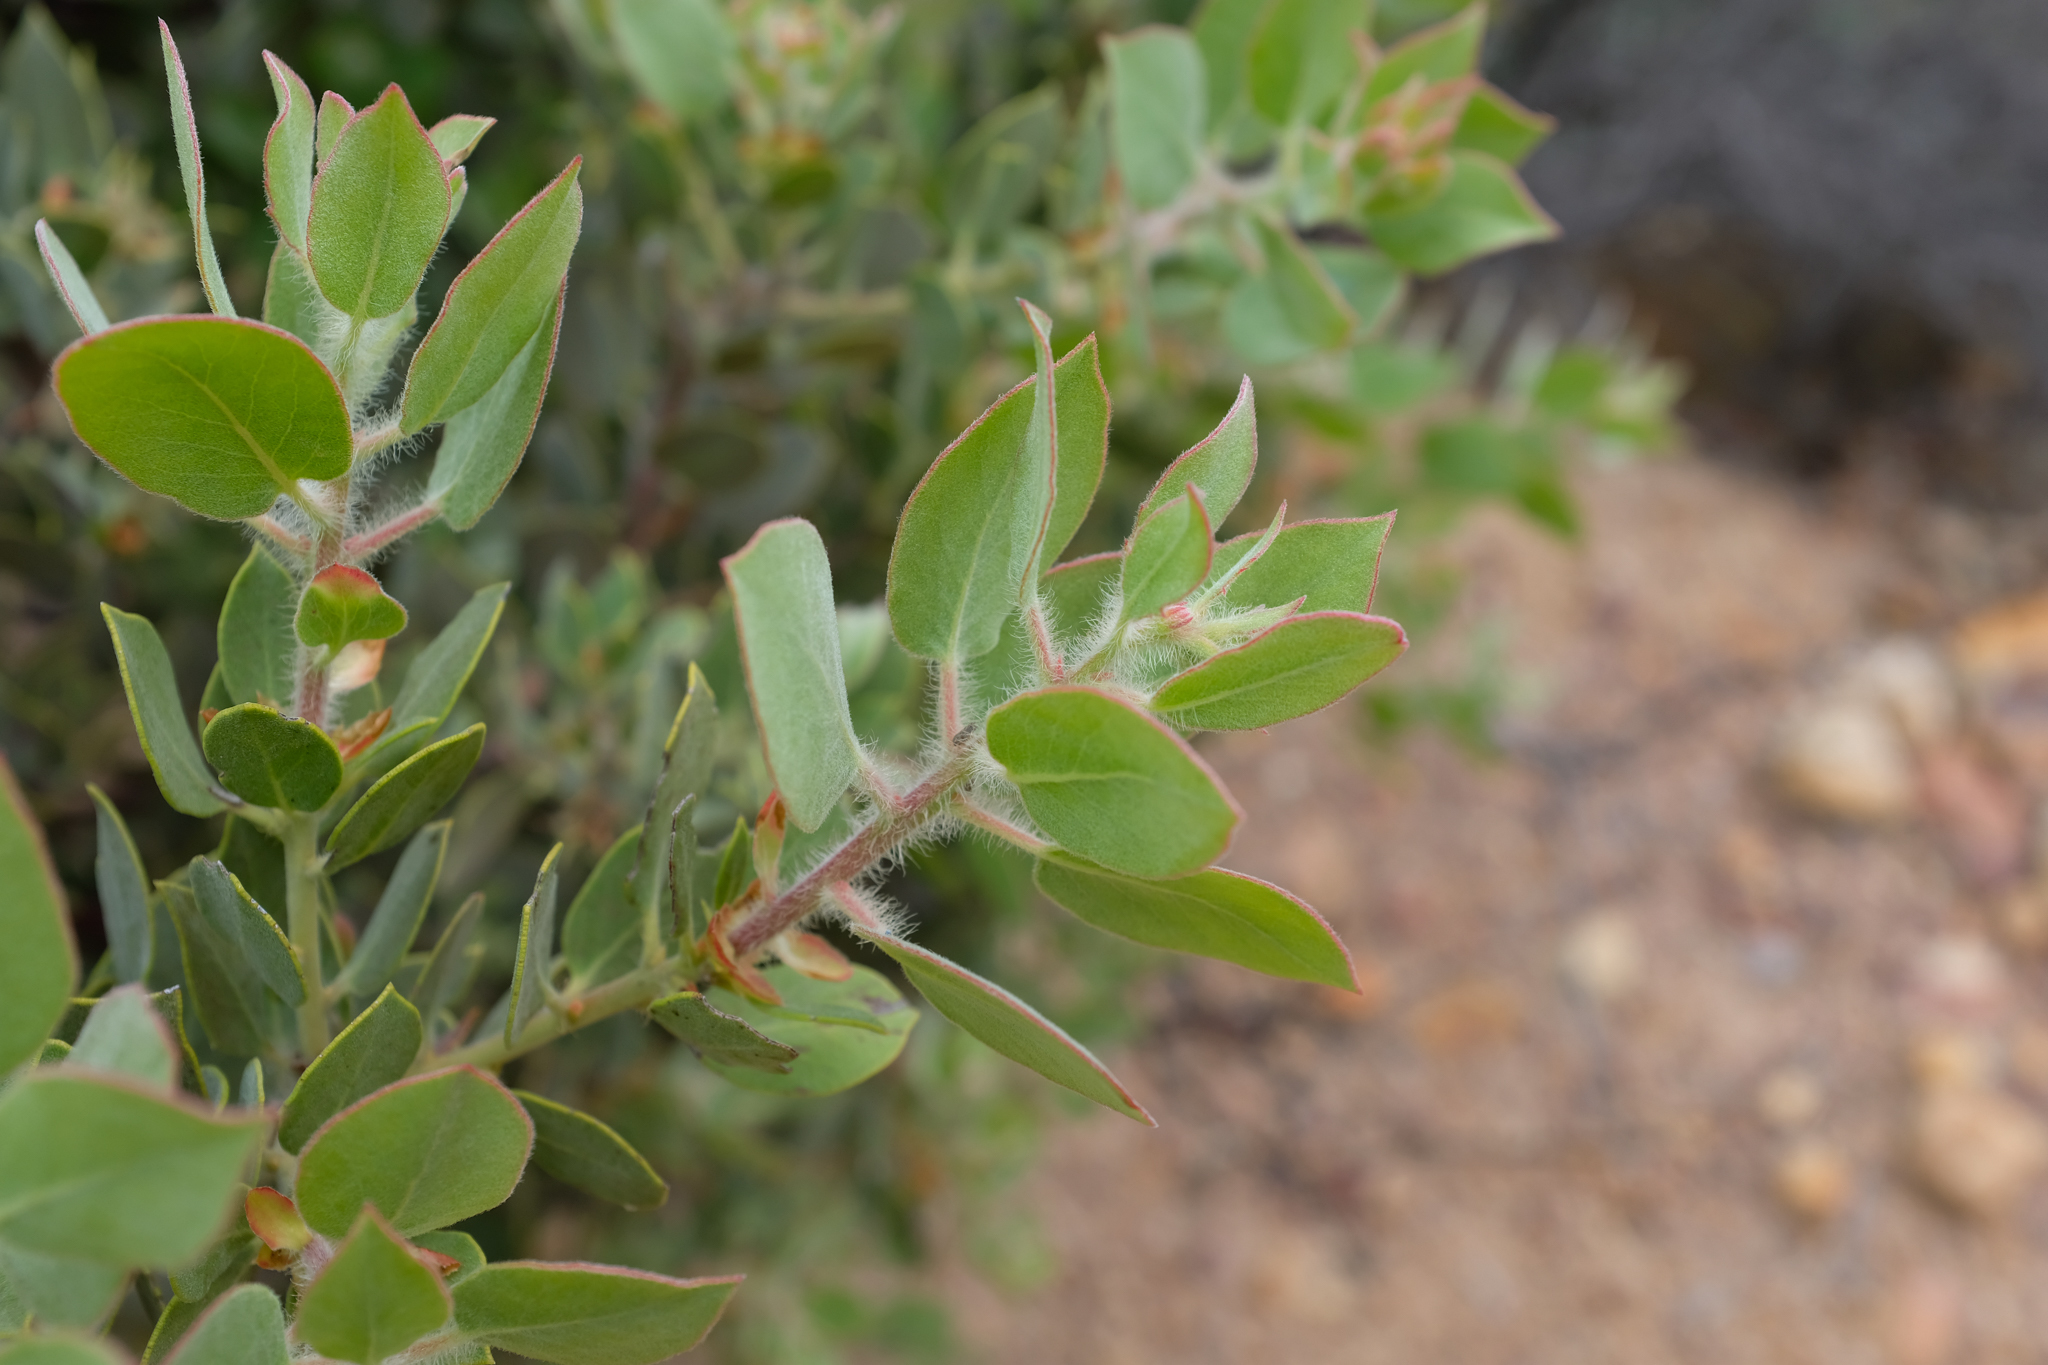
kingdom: Plantae
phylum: Tracheophyta
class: Magnoliopsida
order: Ericales
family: Ericaceae
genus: Arctostaphylos
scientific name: Arctostaphylos pilosula
